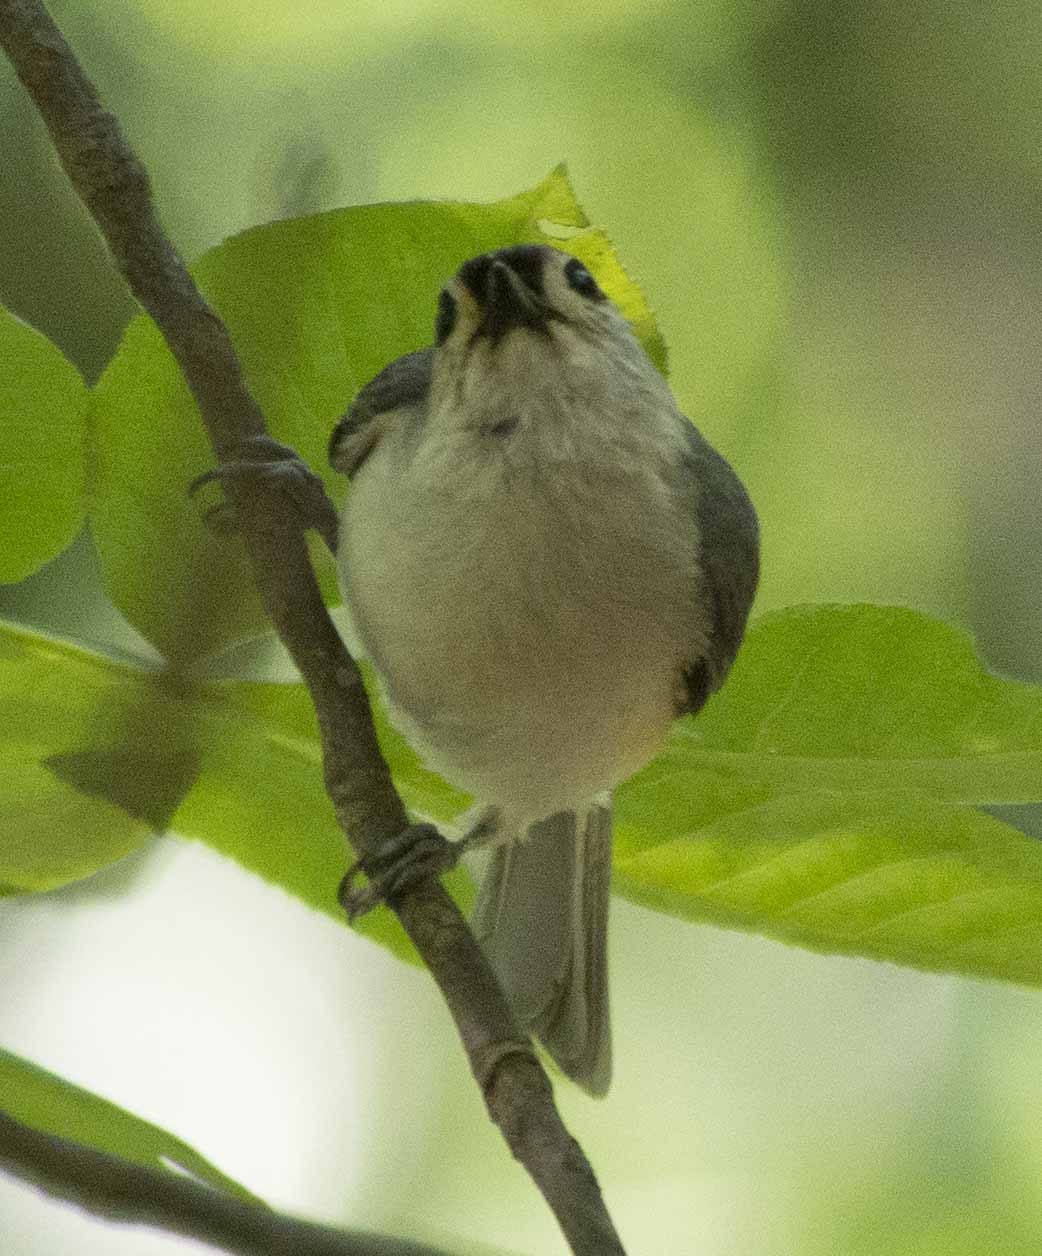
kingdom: Animalia
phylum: Chordata
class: Aves
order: Passeriformes
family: Paridae
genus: Baeolophus
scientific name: Baeolophus bicolor
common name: Tufted titmouse
